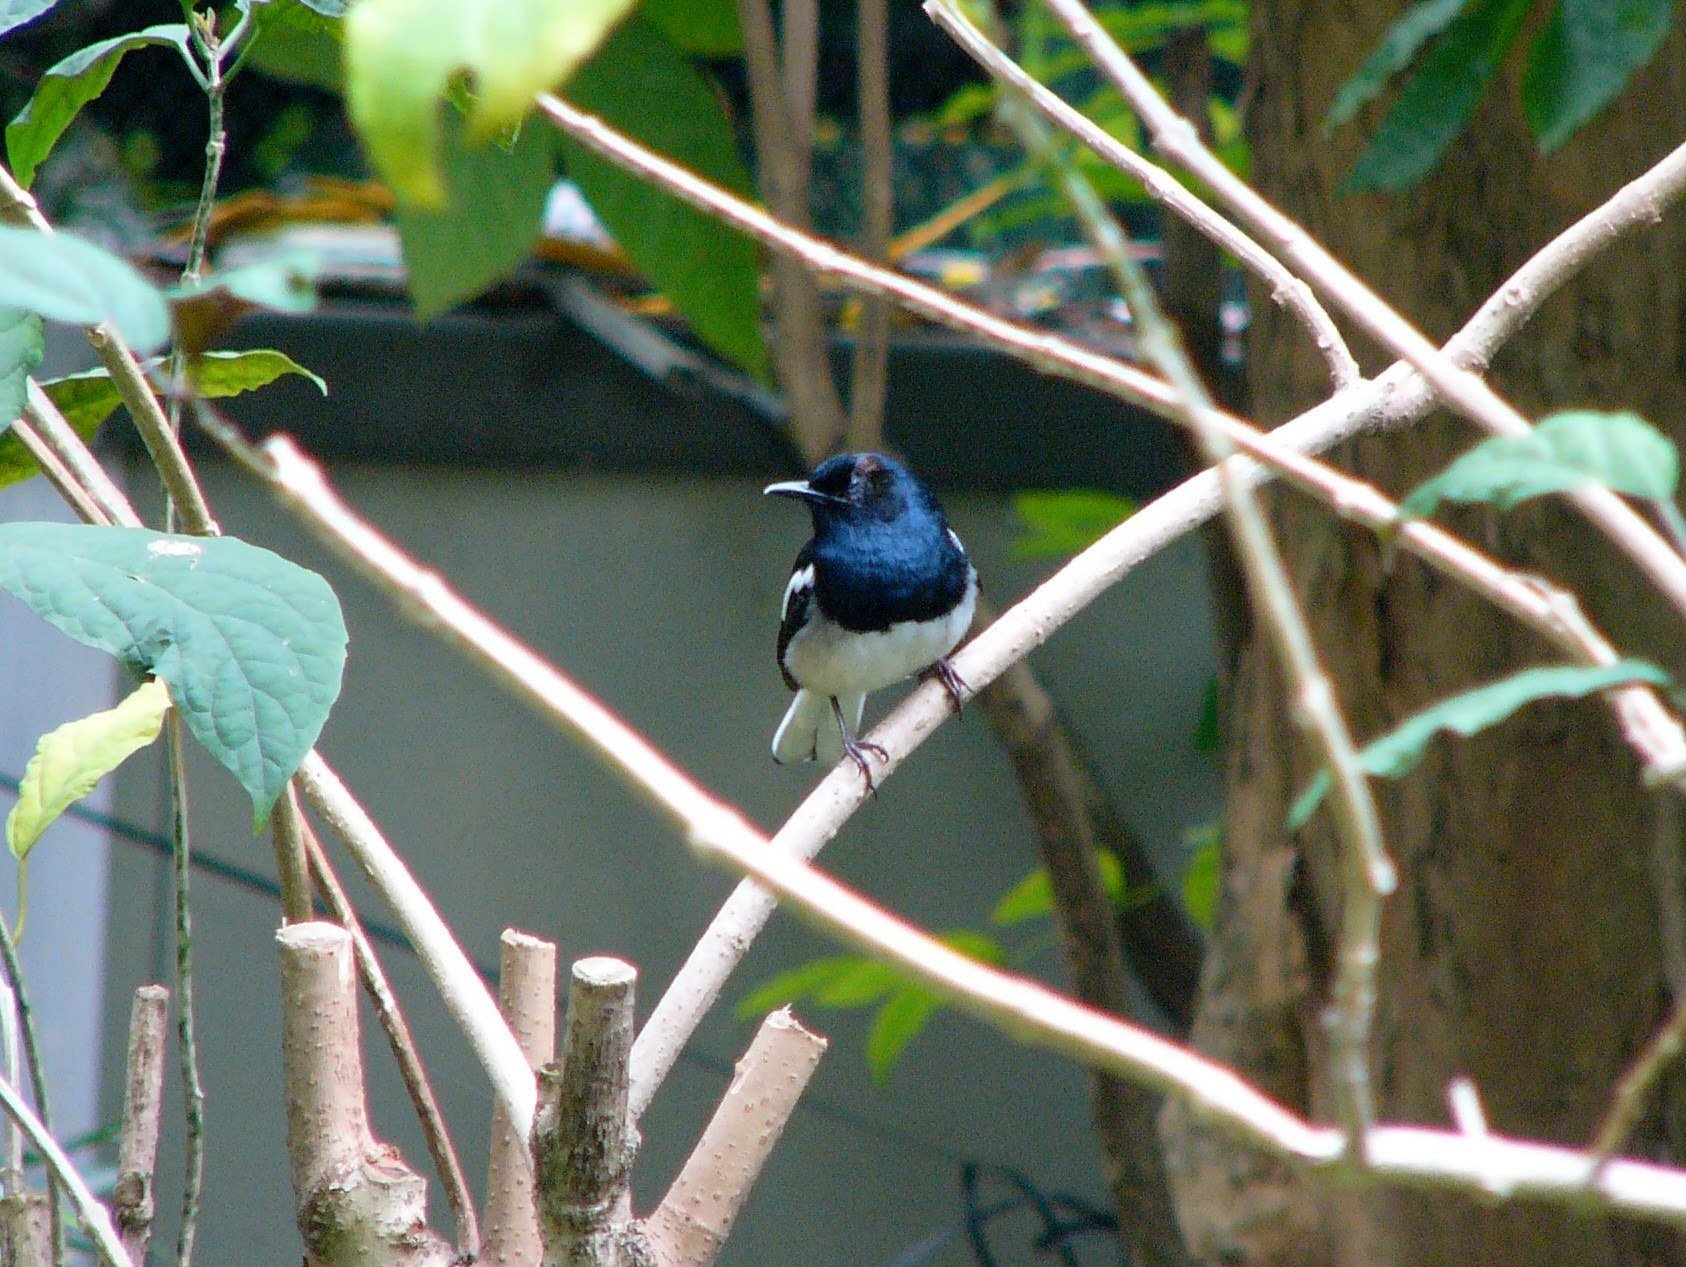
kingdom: Animalia
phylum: Chordata
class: Aves
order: Passeriformes
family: Muscicapidae
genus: Copsychus
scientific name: Copsychus saularis
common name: Oriental magpie-robin
